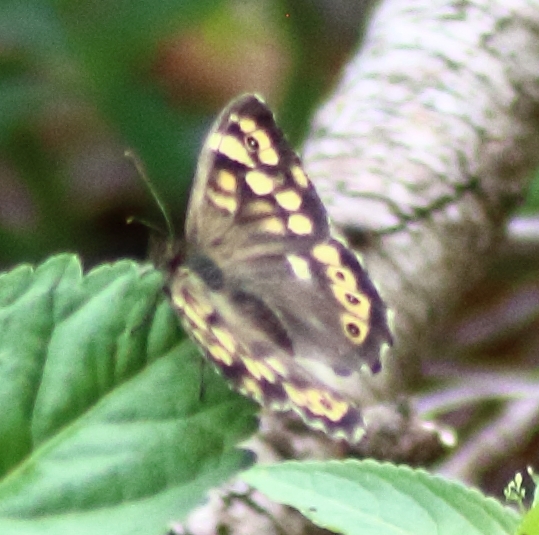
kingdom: Animalia
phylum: Arthropoda
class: Insecta
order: Lepidoptera
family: Nymphalidae
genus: Pararge
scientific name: Pararge aegeria
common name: Speckled wood
